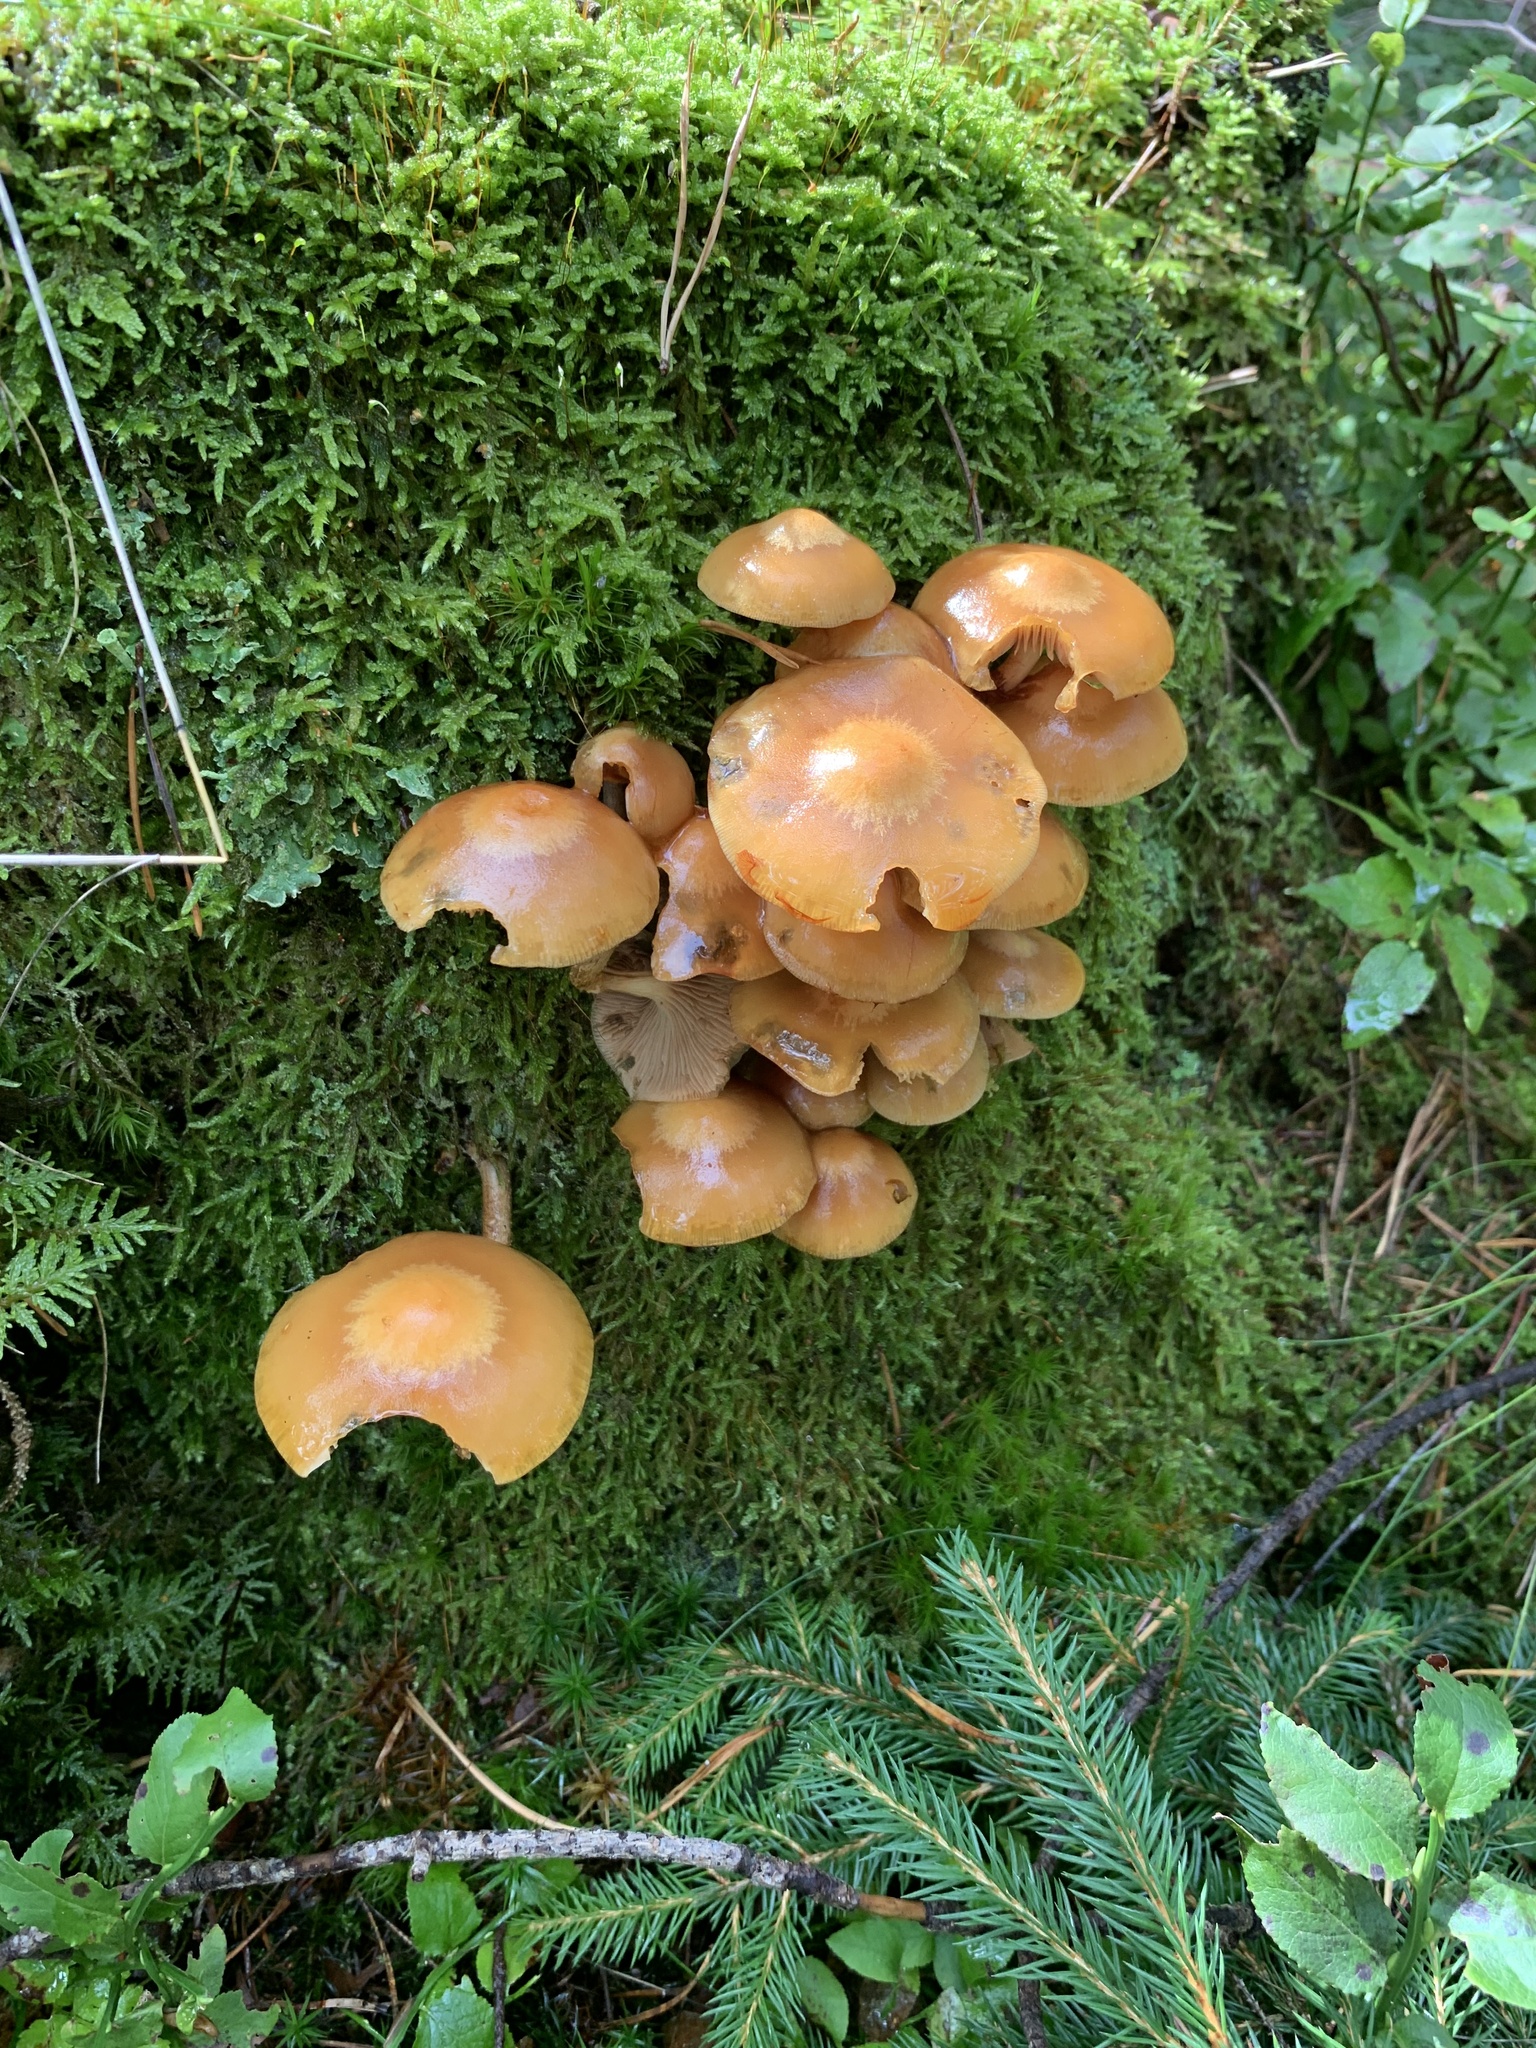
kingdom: Fungi
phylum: Basidiomycota
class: Agaricomycetes
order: Agaricales
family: Strophariaceae
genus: Kuehneromyces
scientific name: Kuehneromyces mutabilis
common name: Sheathed woodtuft
